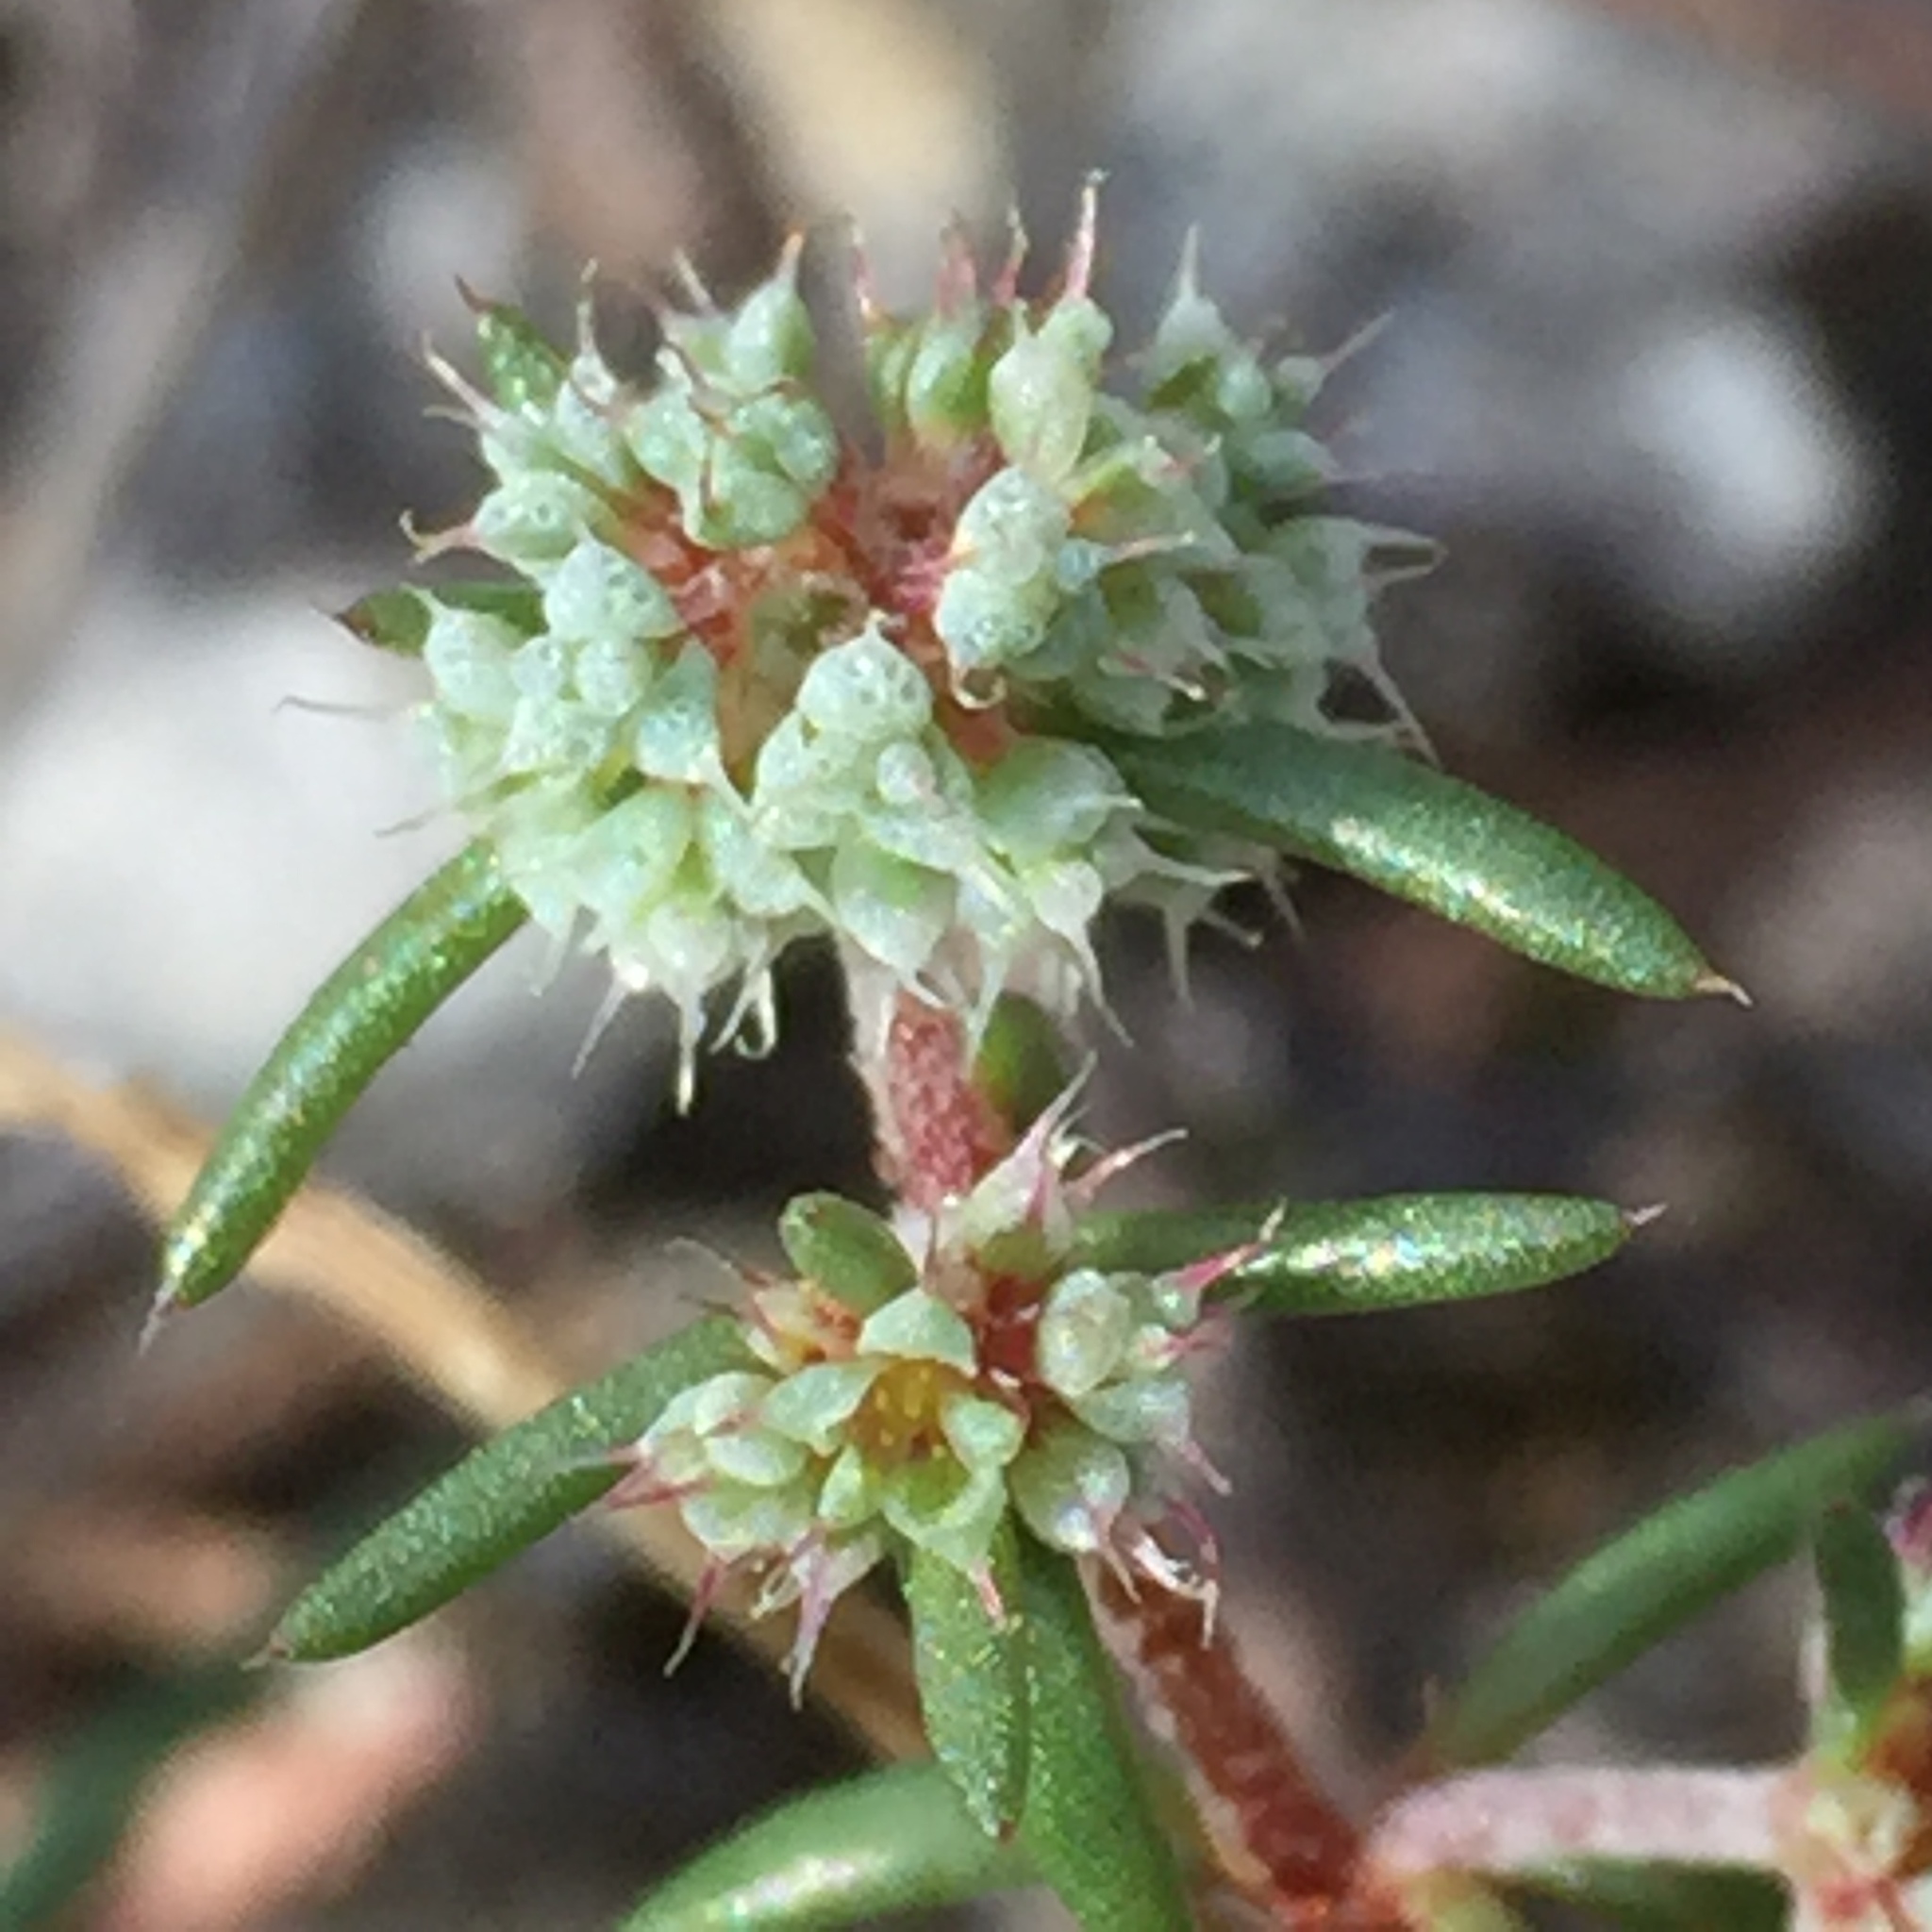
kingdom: Plantae
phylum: Tracheophyta
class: Magnoliopsida
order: Caryophyllales
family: Caryophyllaceae
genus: Chaetonychia
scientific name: Chaetonychia cymosa
